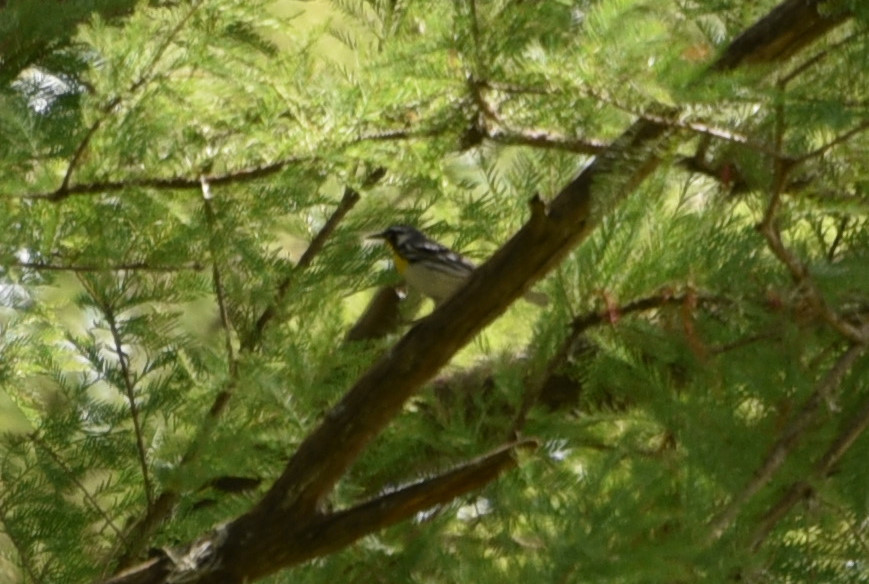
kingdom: Animalia
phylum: Chordata
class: Aves
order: Passeriformes
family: Parulidae
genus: Setophaga
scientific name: Setophaga dominica
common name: Yellow-throated warbler
